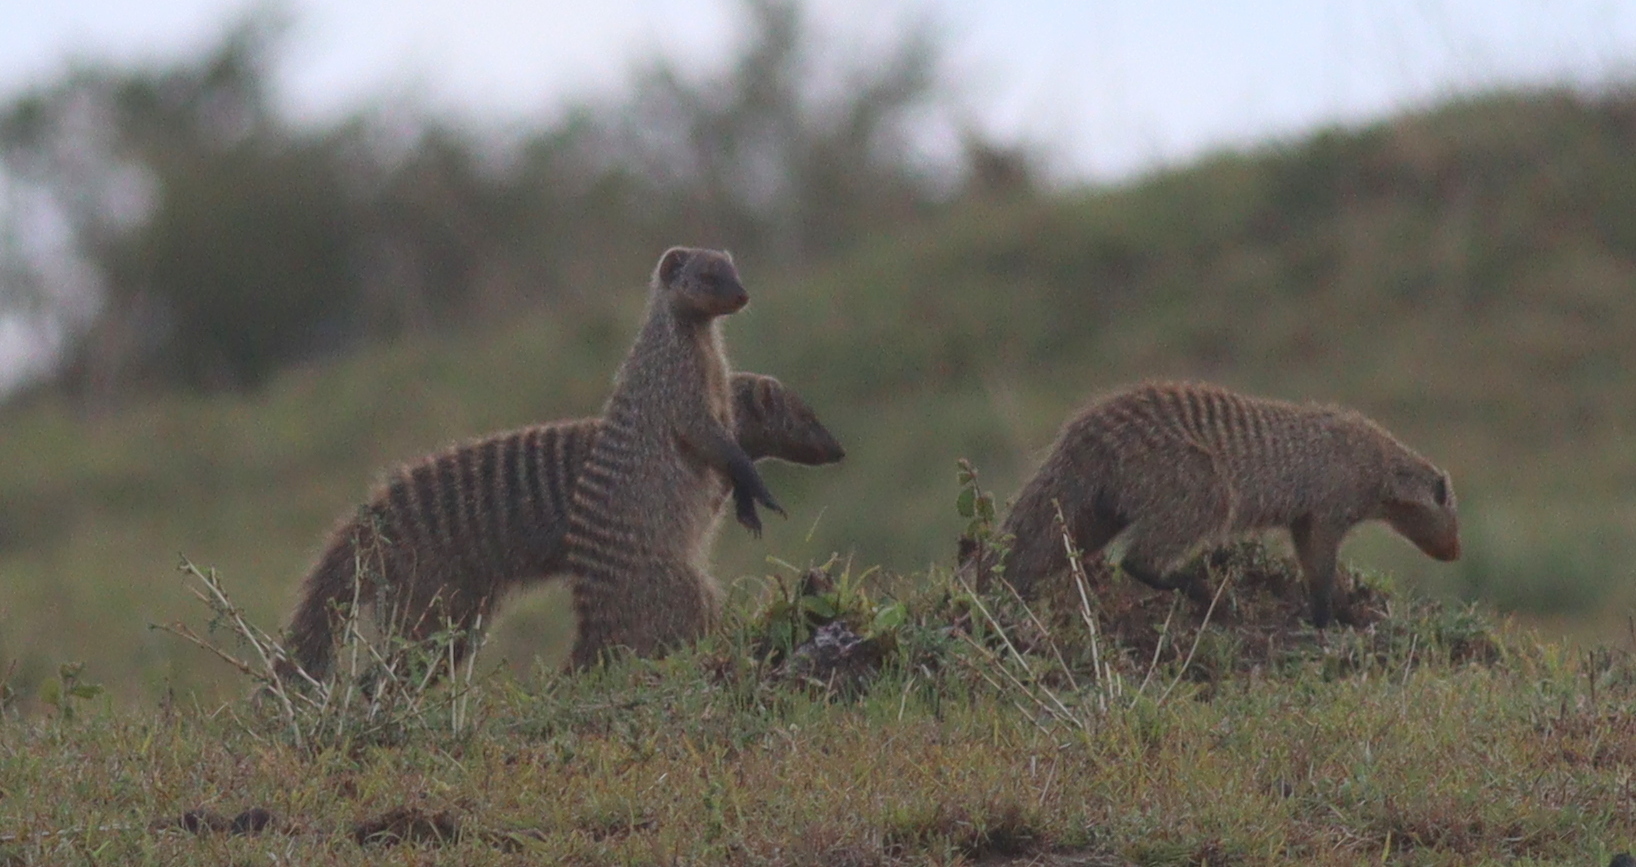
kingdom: Animalia
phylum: Chordata
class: Mammalia
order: Carnivora
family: Herpestidae
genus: Mungos
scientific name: Mungos mungo
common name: Banded mongoose
